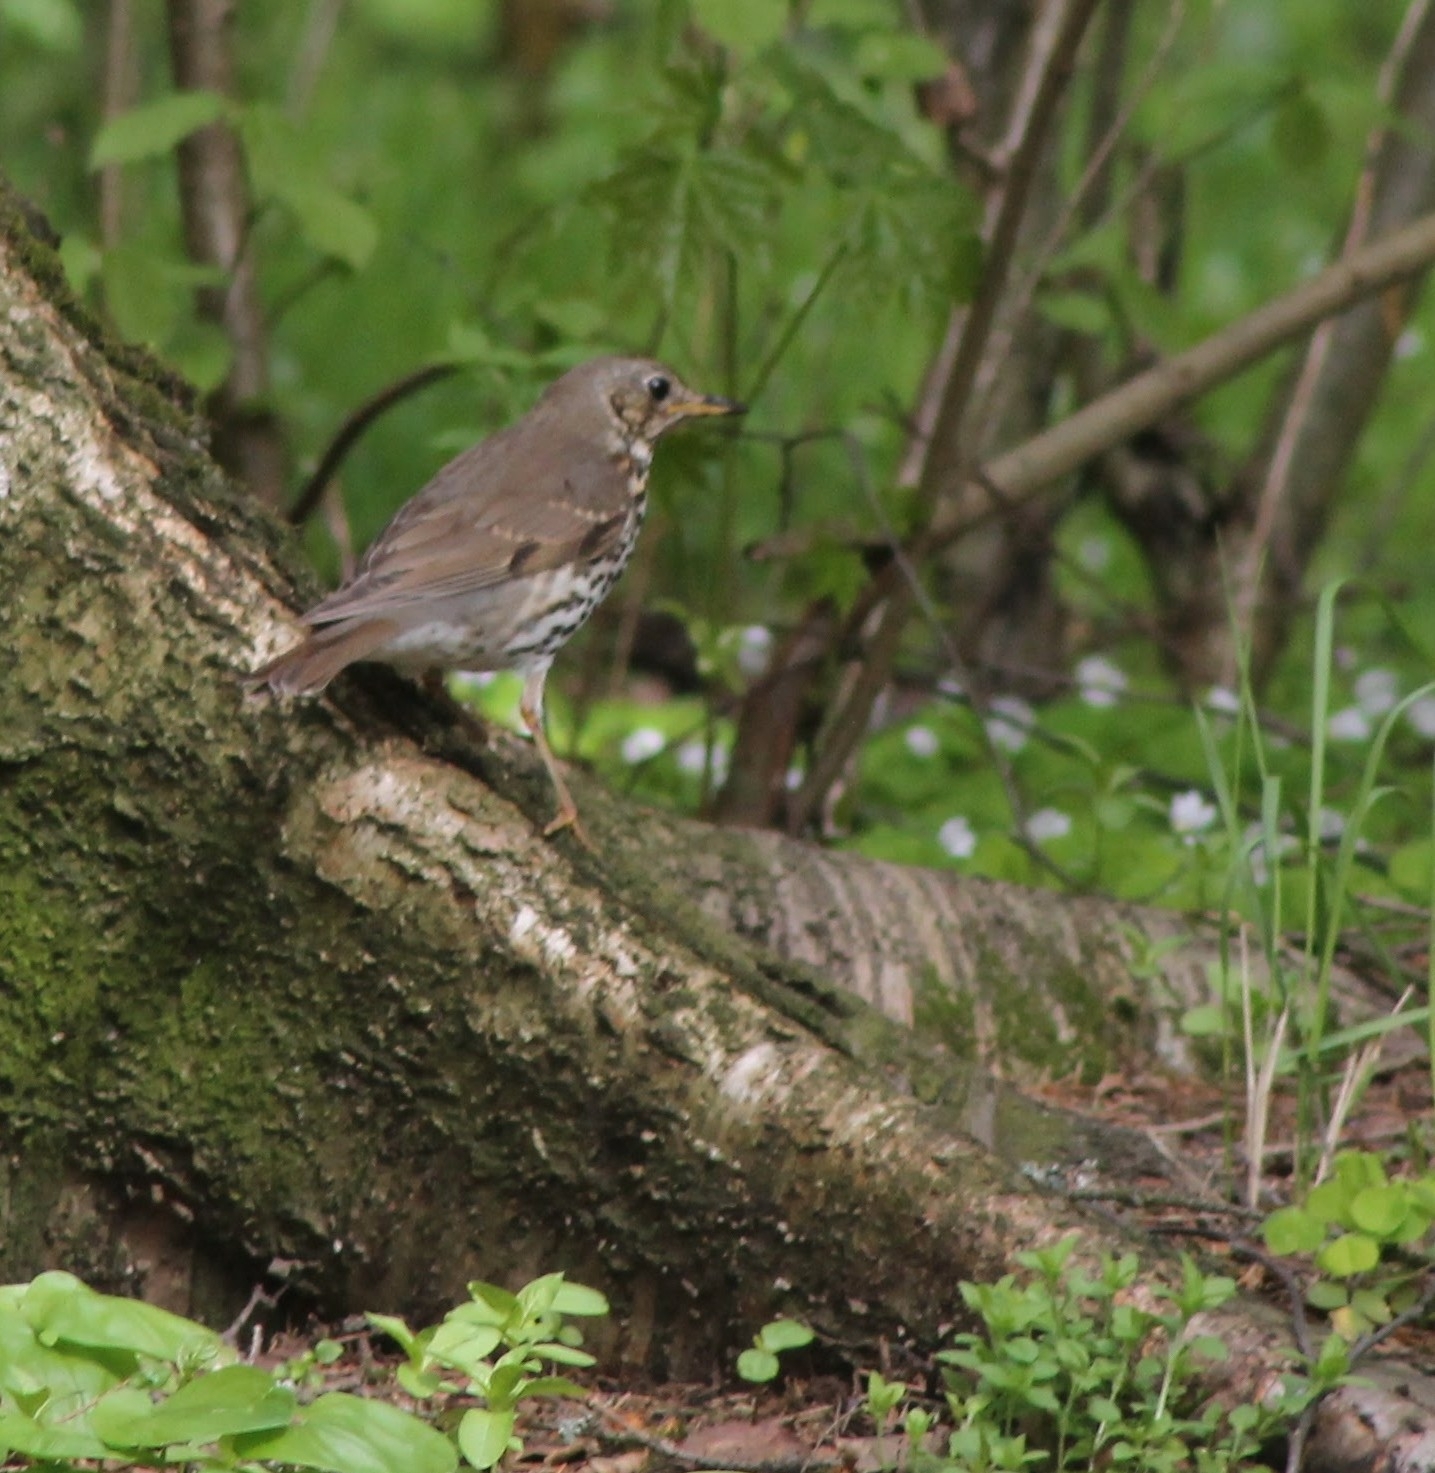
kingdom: Animalia
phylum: Chordata
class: Aves
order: Passeriformes
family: Turdidae
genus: Turdus
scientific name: Turdus philomelos
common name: Song thrush
